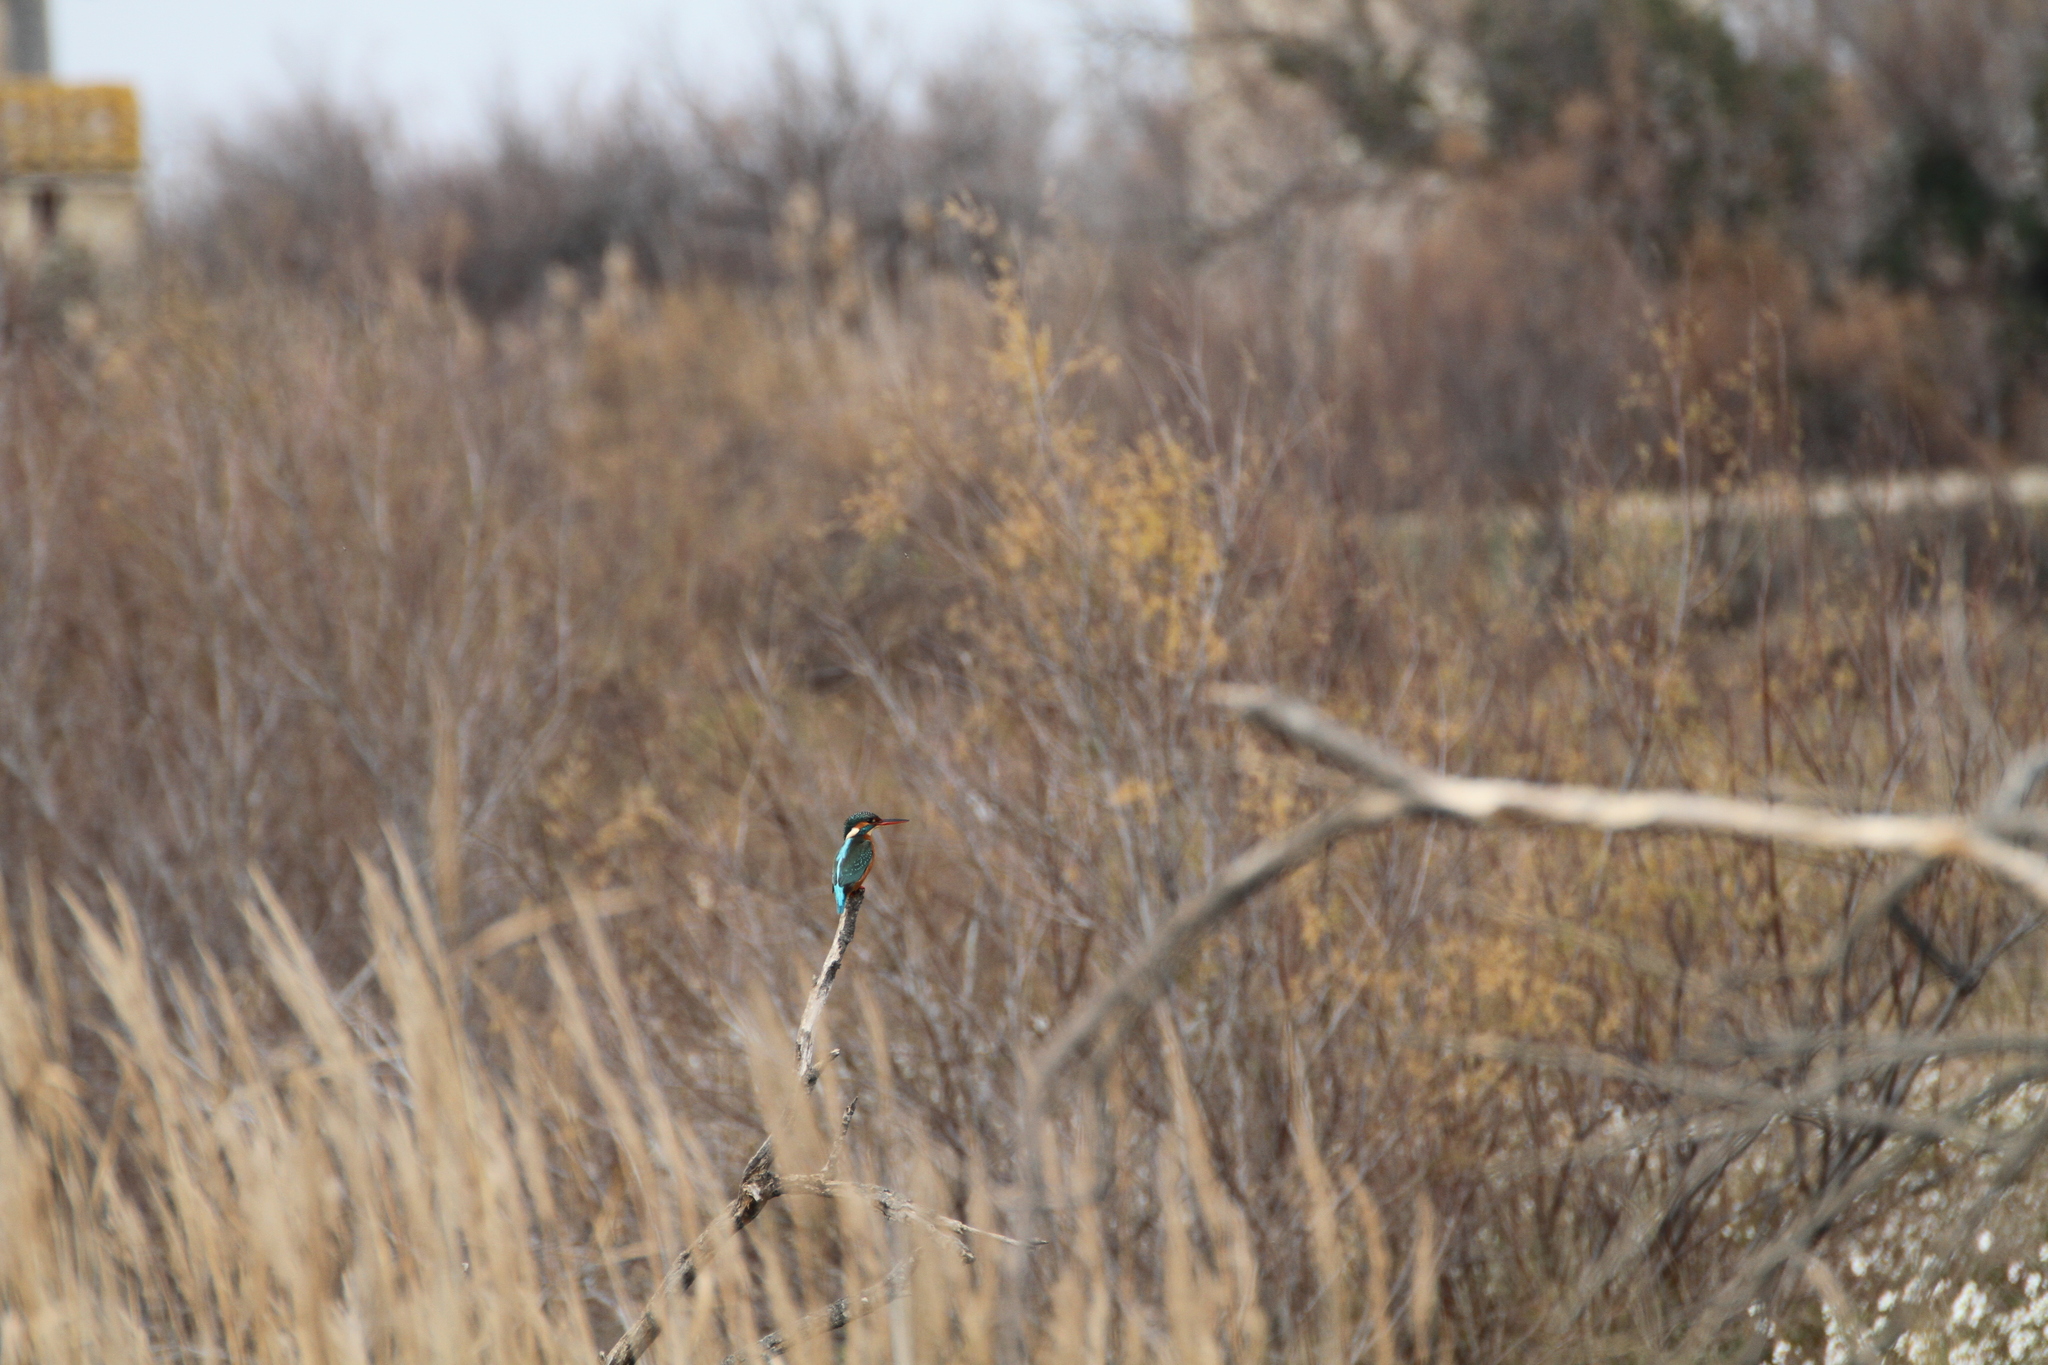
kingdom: Animalia
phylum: Chordata
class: Aves
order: Coraciiformes
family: Alcedinidae
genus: Alcedo
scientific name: Alcedo atthis
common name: Common kingfisher
